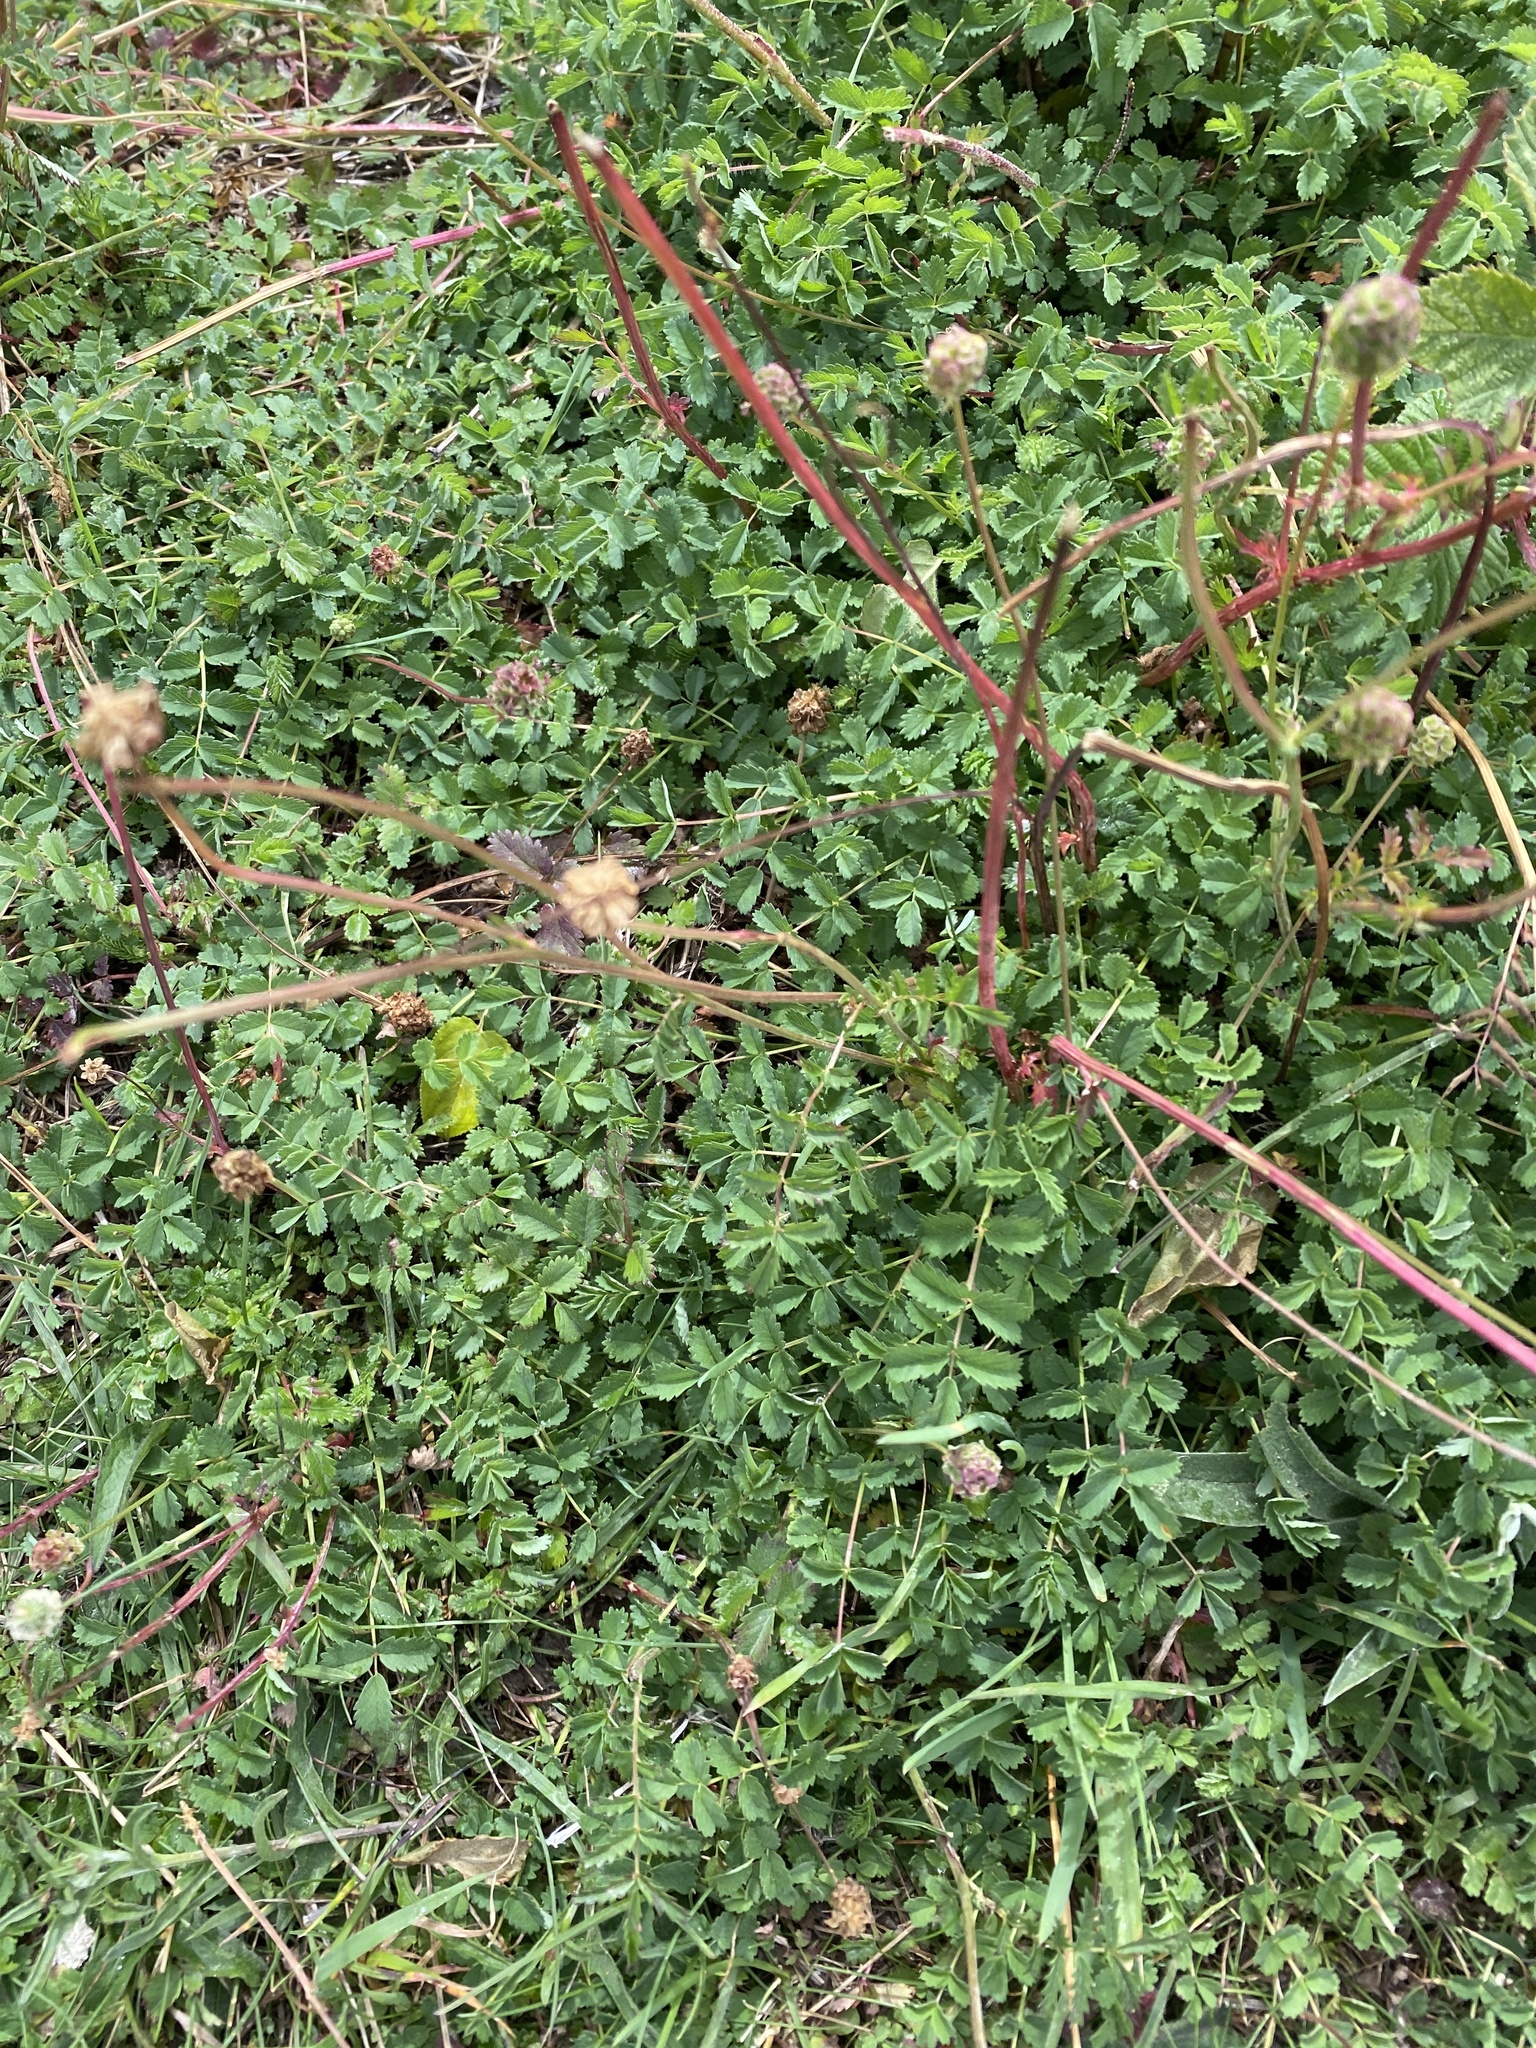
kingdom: Plantae
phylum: Tracheophyta
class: Magnoliopsida
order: Rosales
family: Rosaceae
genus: Poterium
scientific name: Poterium sanguisorba
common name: Salad burnet
